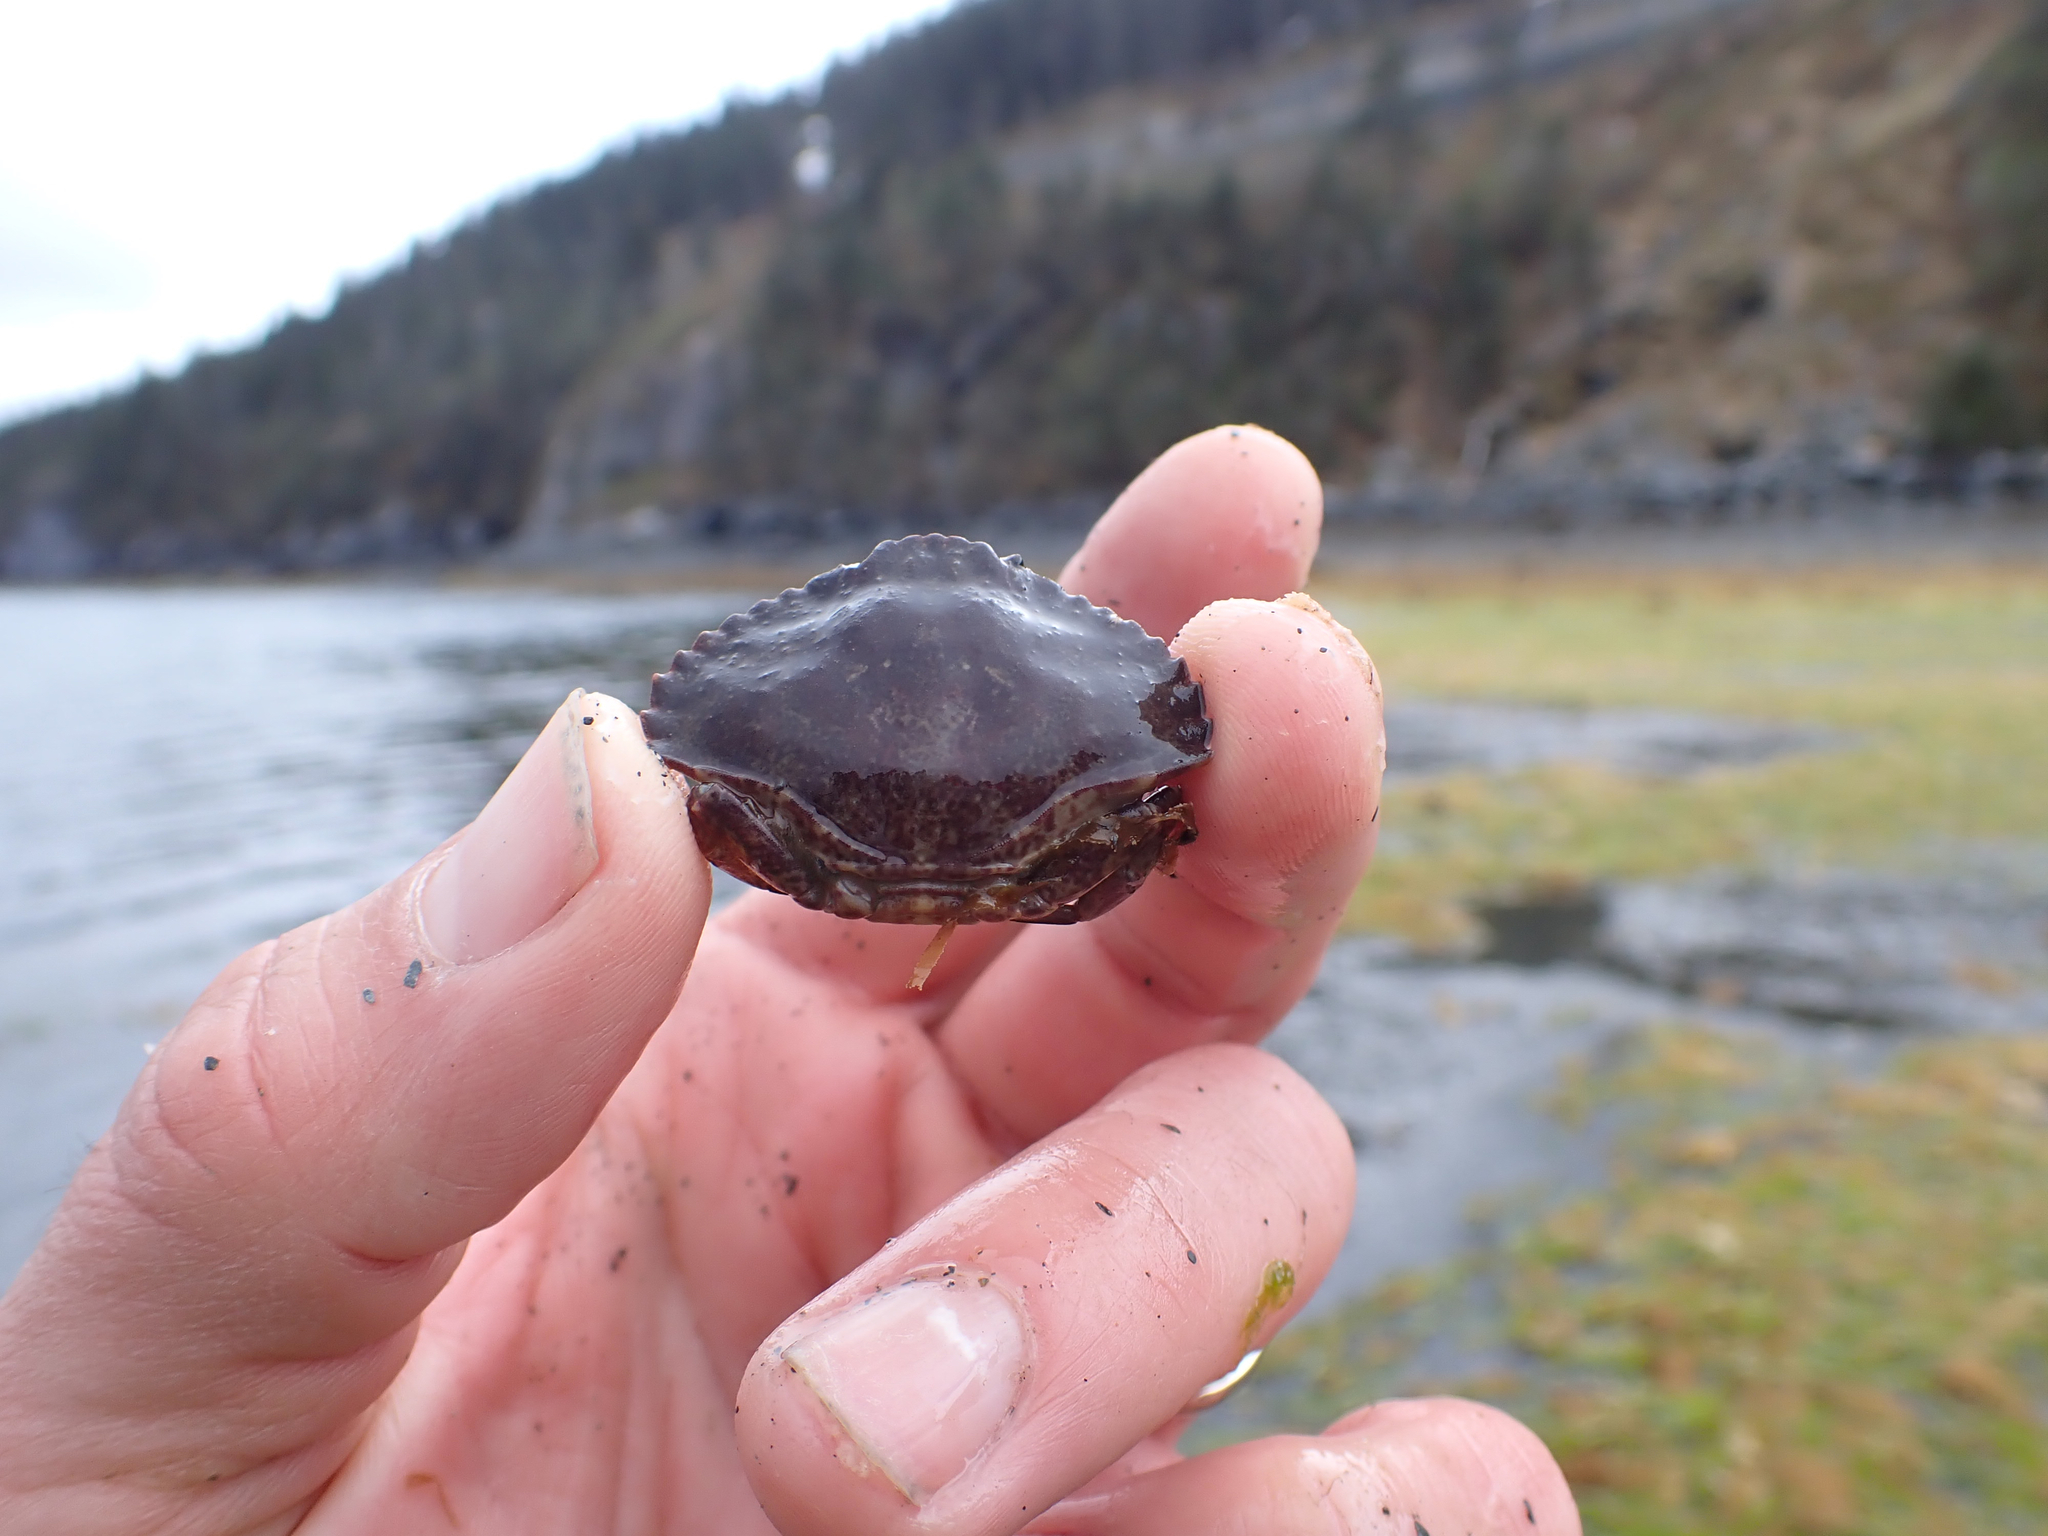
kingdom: Animalia
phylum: Arthropoda
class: Malacostraca
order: Decapoda
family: Cancridae
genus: Cancer
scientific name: Cancer productus
